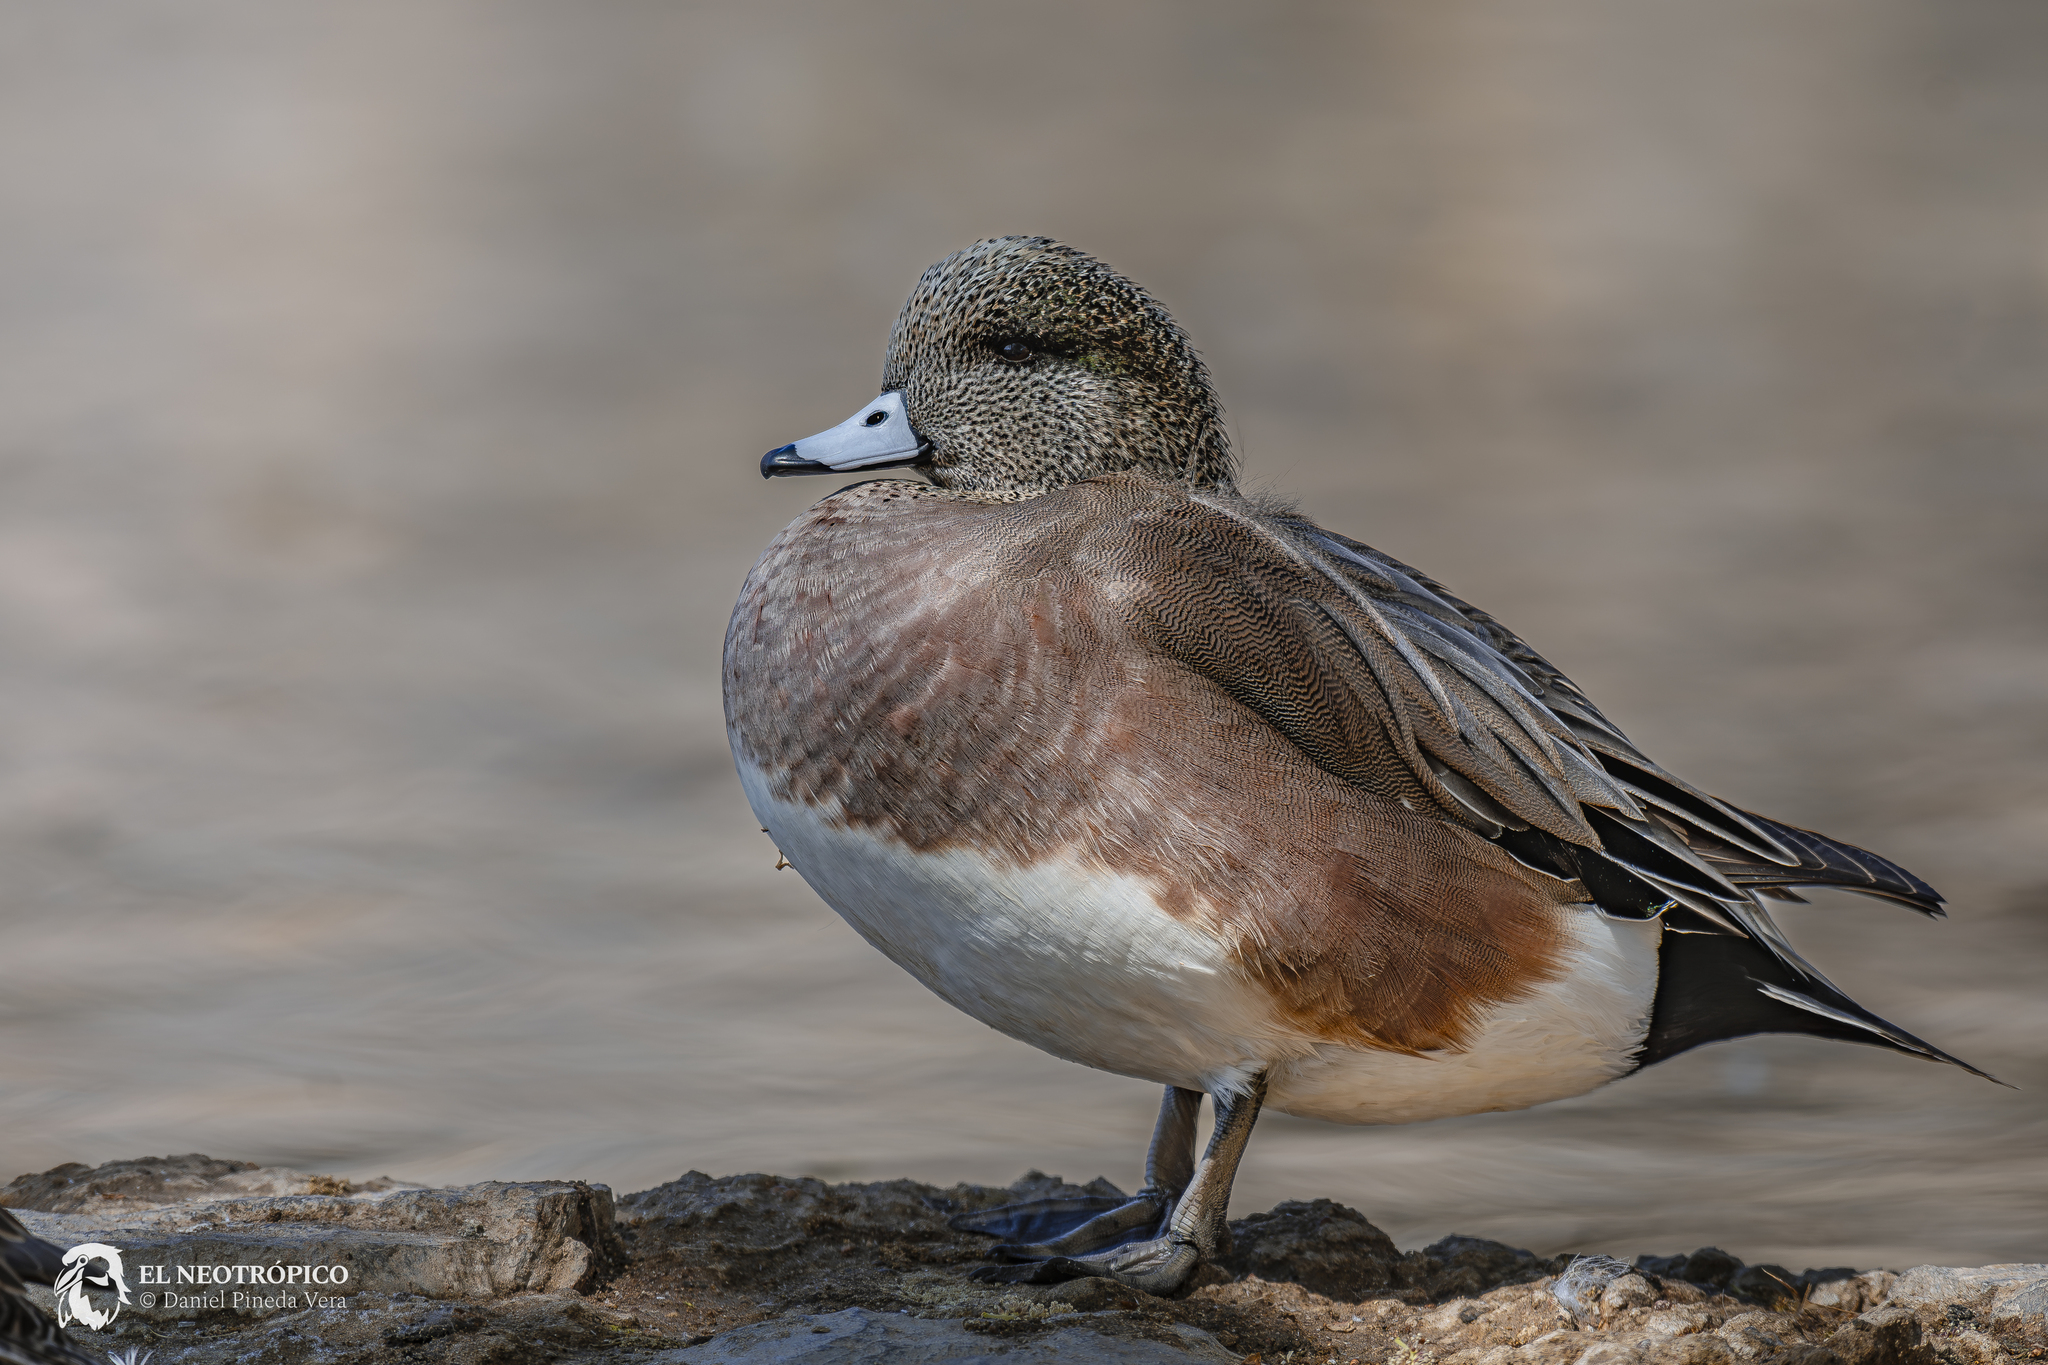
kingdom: Animalia
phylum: Chordata
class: Aves
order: Anseriformes
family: Anatidae
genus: Mareca
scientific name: Mareca americana
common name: American wigeon
